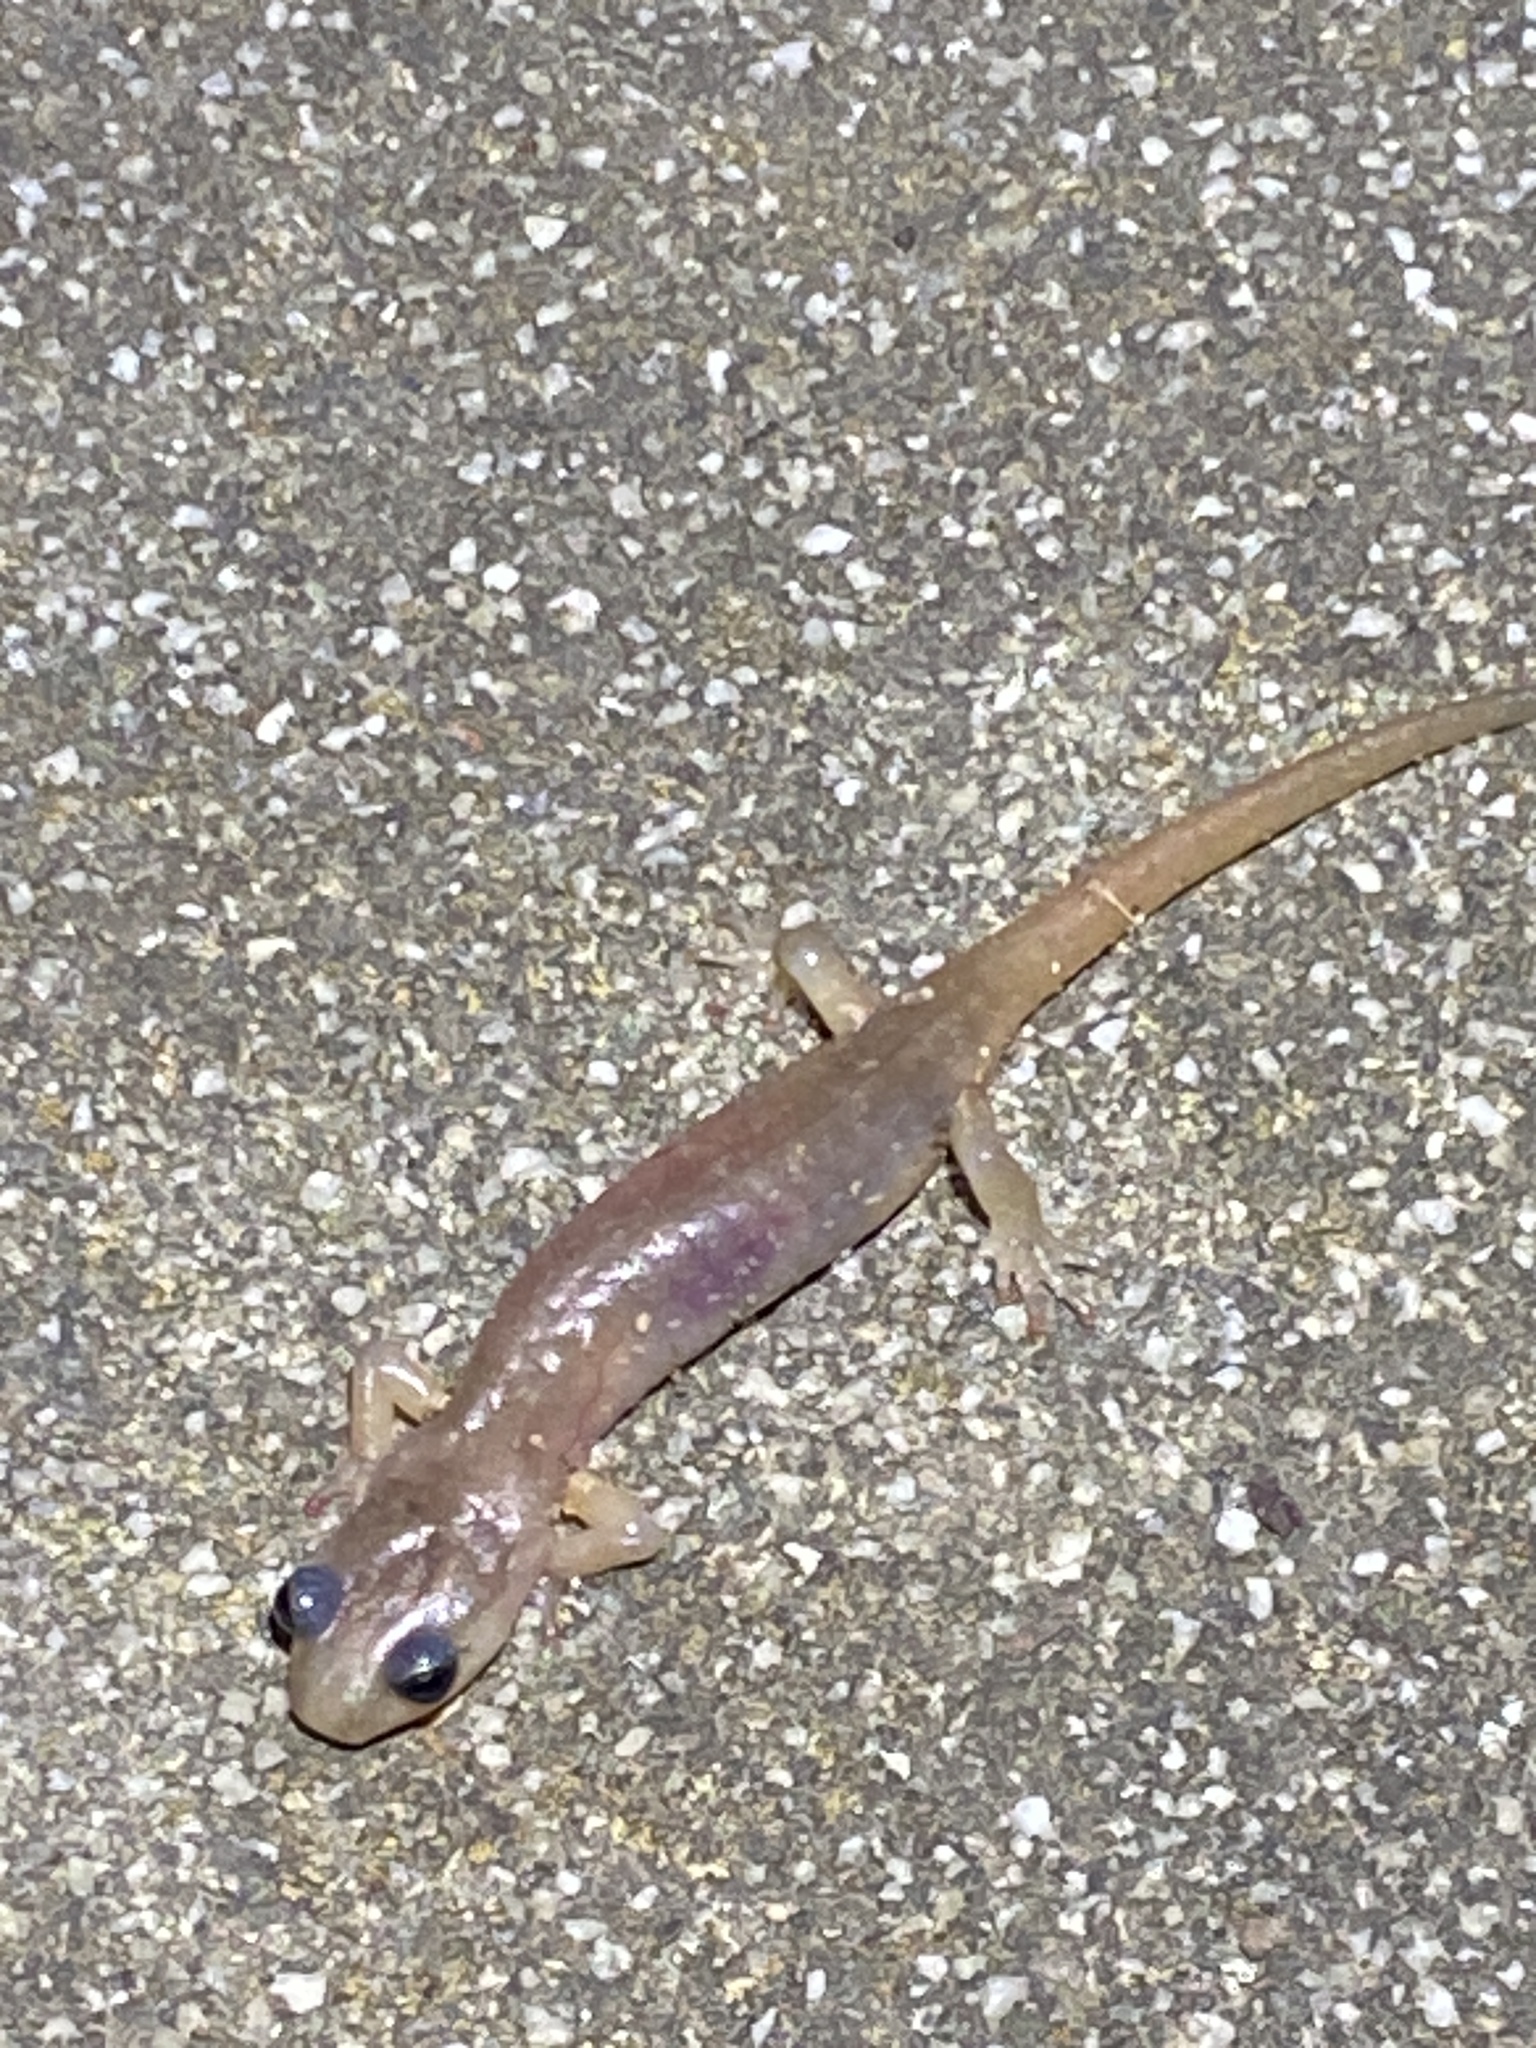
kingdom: Animalia
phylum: Chordata
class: Amphibia
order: Caudata
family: Plethodontidae
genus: Aneides
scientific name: Aneides lugubris
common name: Arboreal salamander
